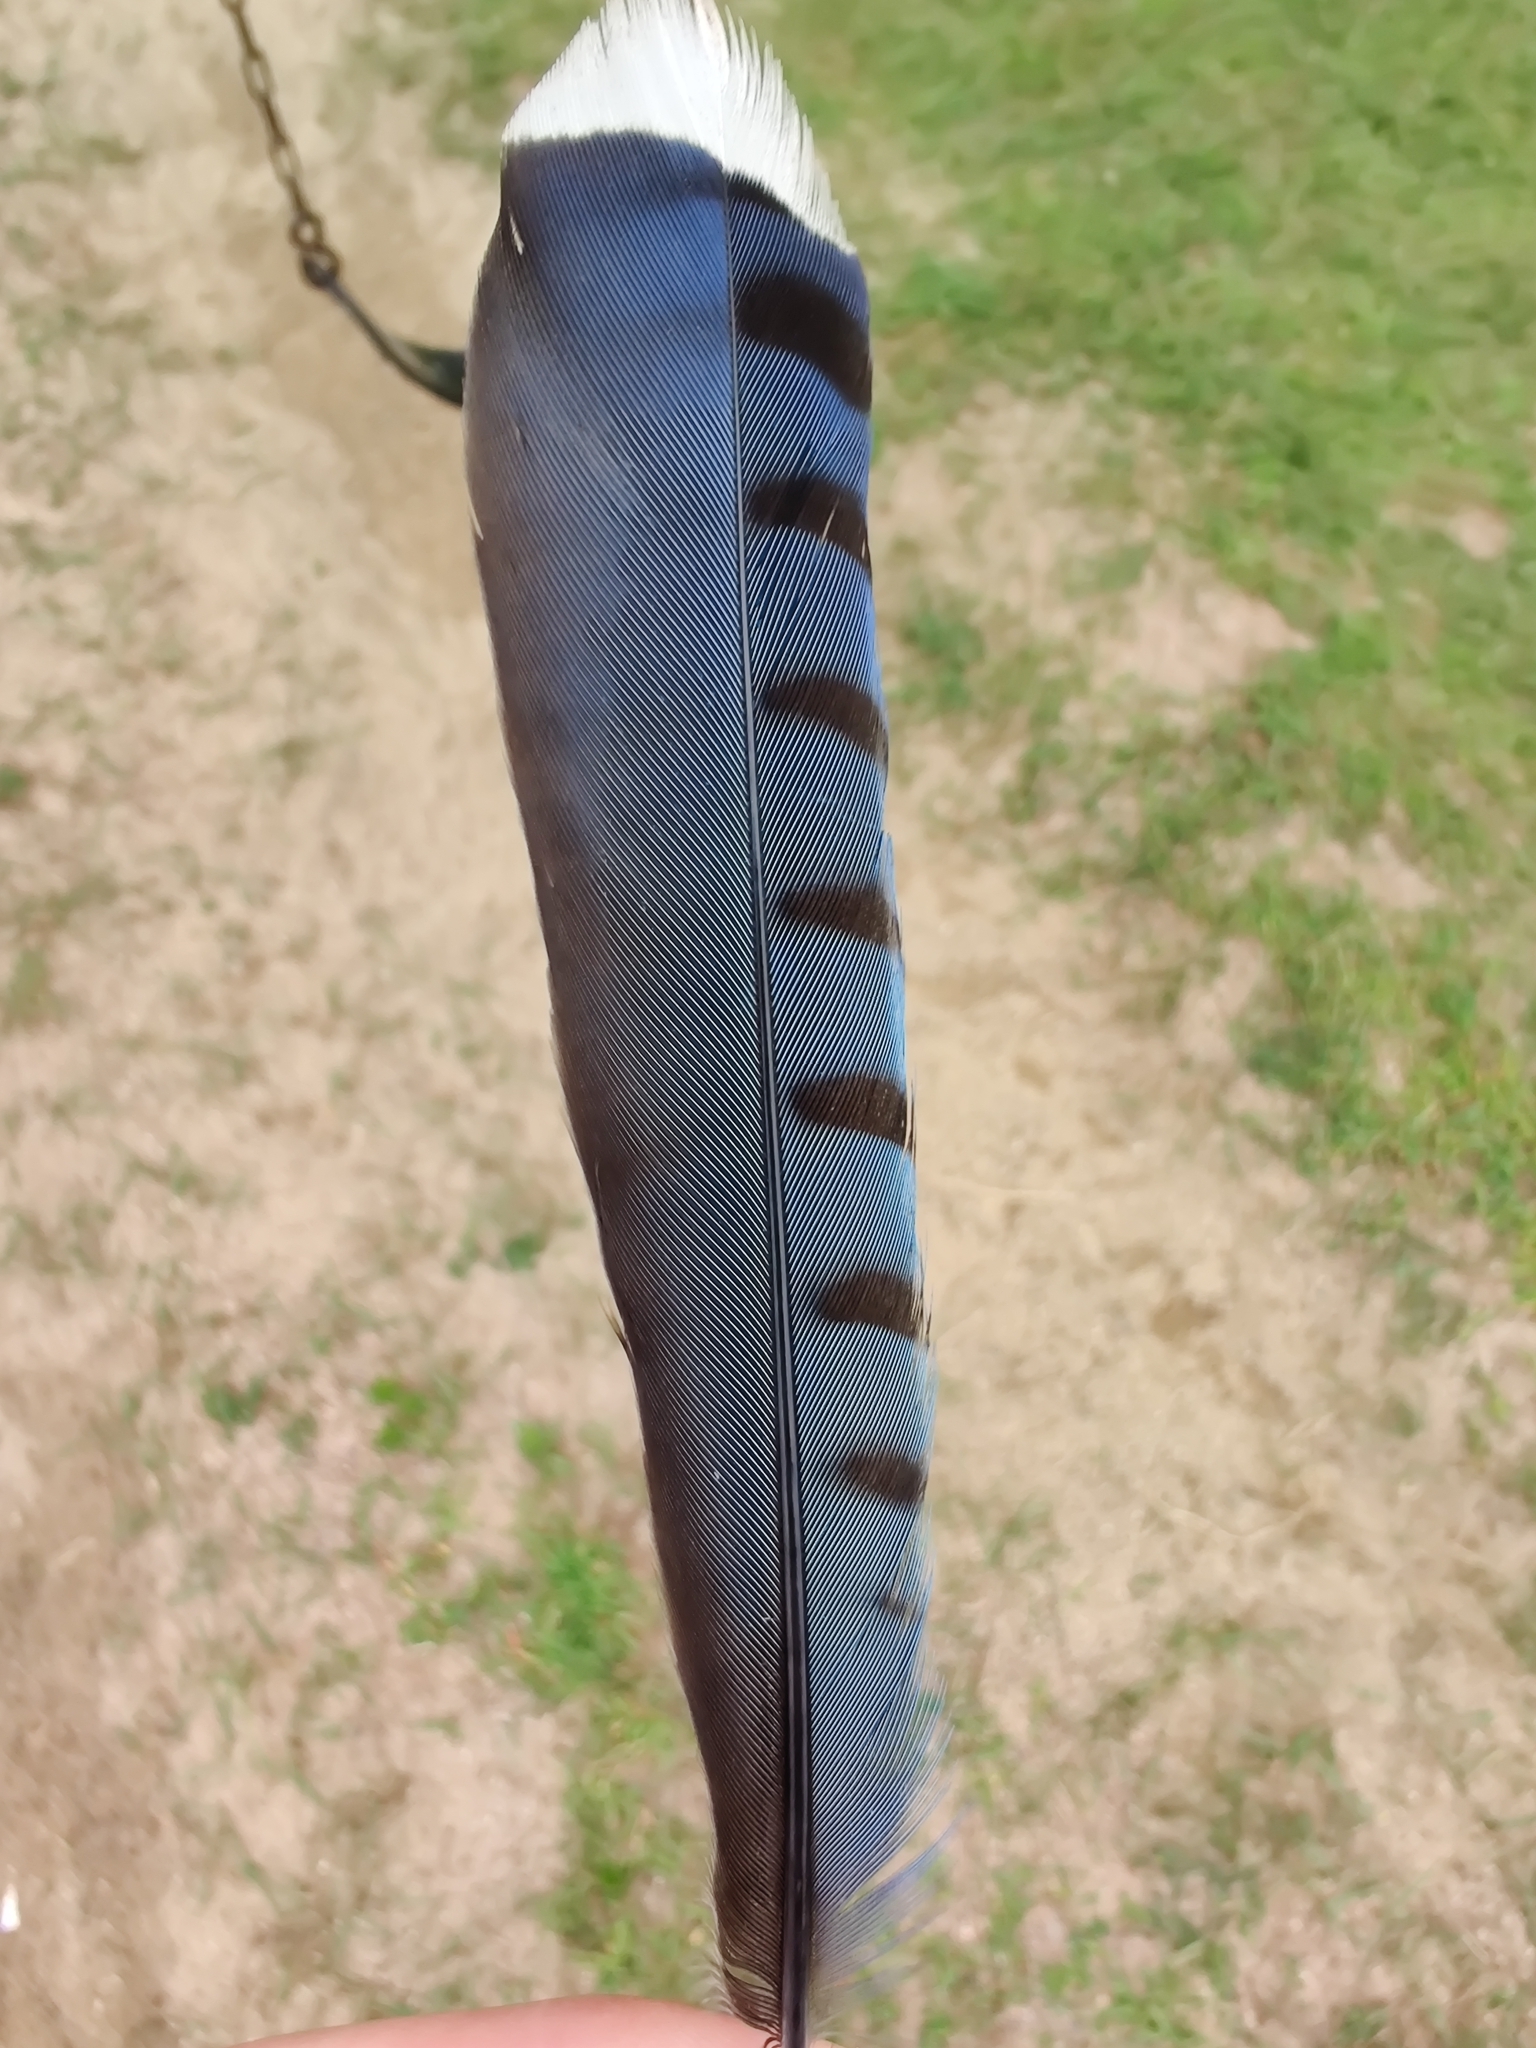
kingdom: Animalia
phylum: Chordata
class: Aves
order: Passeriformes
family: Corvidae
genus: Cyanocitta
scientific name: Cyanocitta cristata
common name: Blue jay
